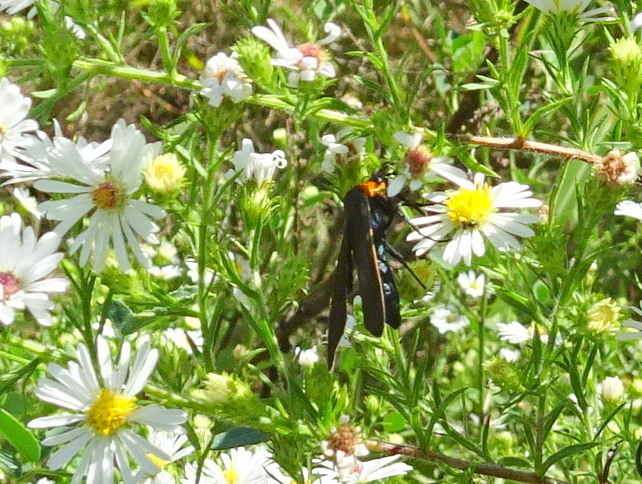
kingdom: Animalia
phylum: Arthropoda
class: Insecta
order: Lepidoptera
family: Erebidae
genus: Cisseps
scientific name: Cisseps fulvicollis
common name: Yellow-collared scape moth
